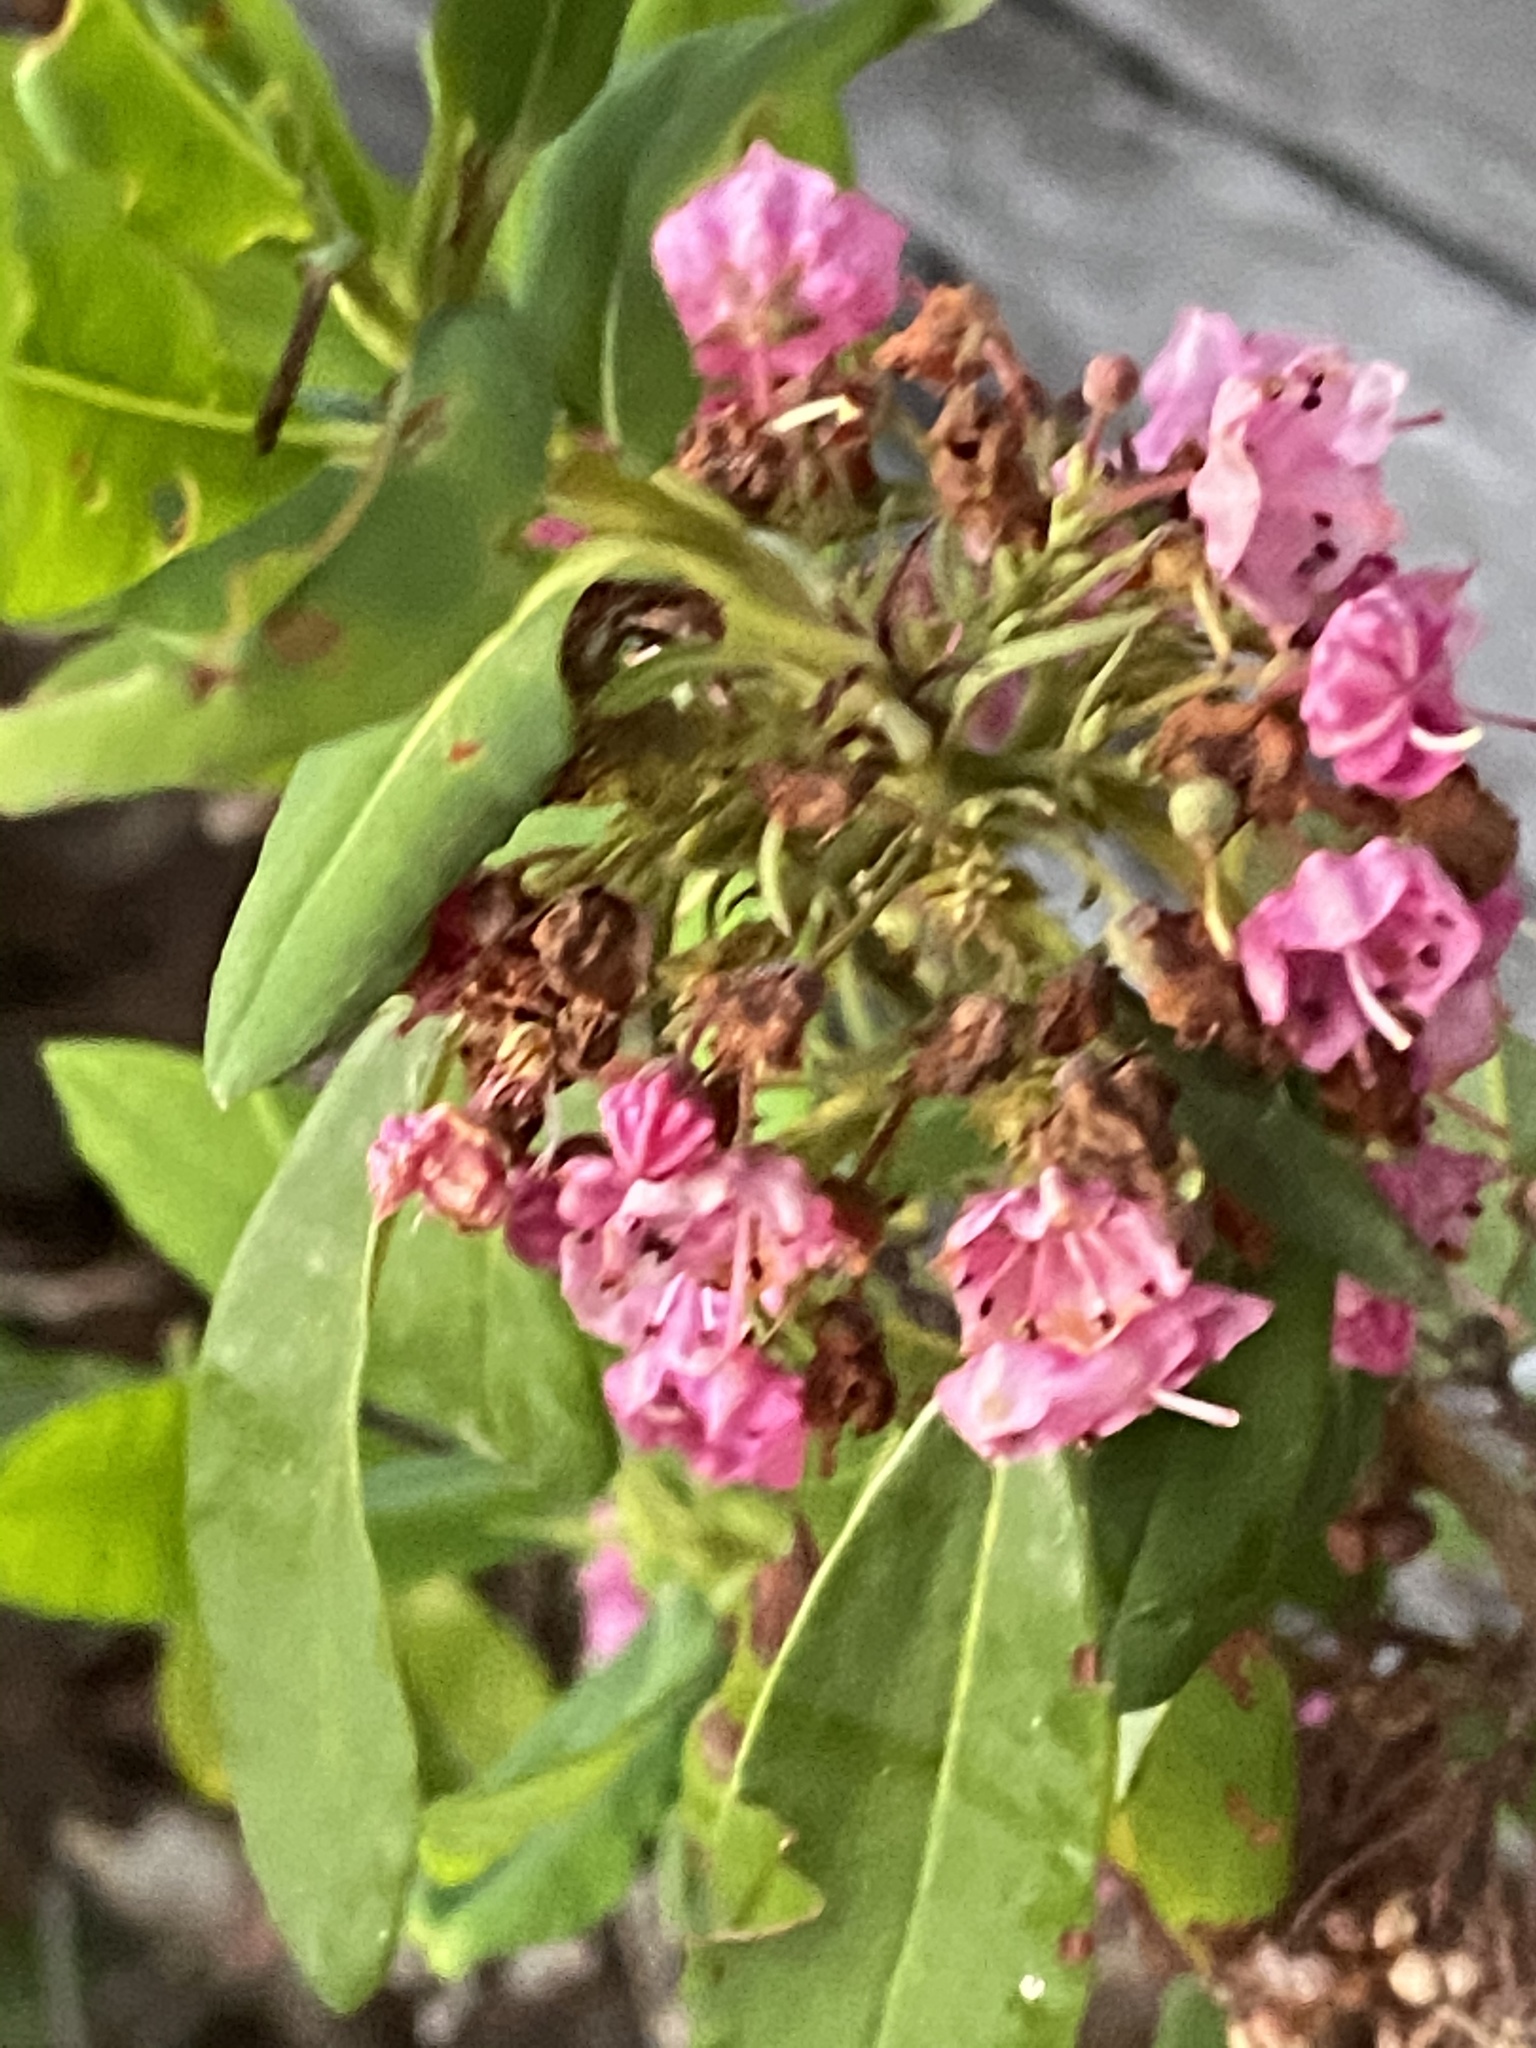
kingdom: Plantae
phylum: Tracheophyta
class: Magnoliopsida
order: Ericales
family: Ericaceae
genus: Kalmia
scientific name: Kalmia angustifolia
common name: Sheep-laurel
